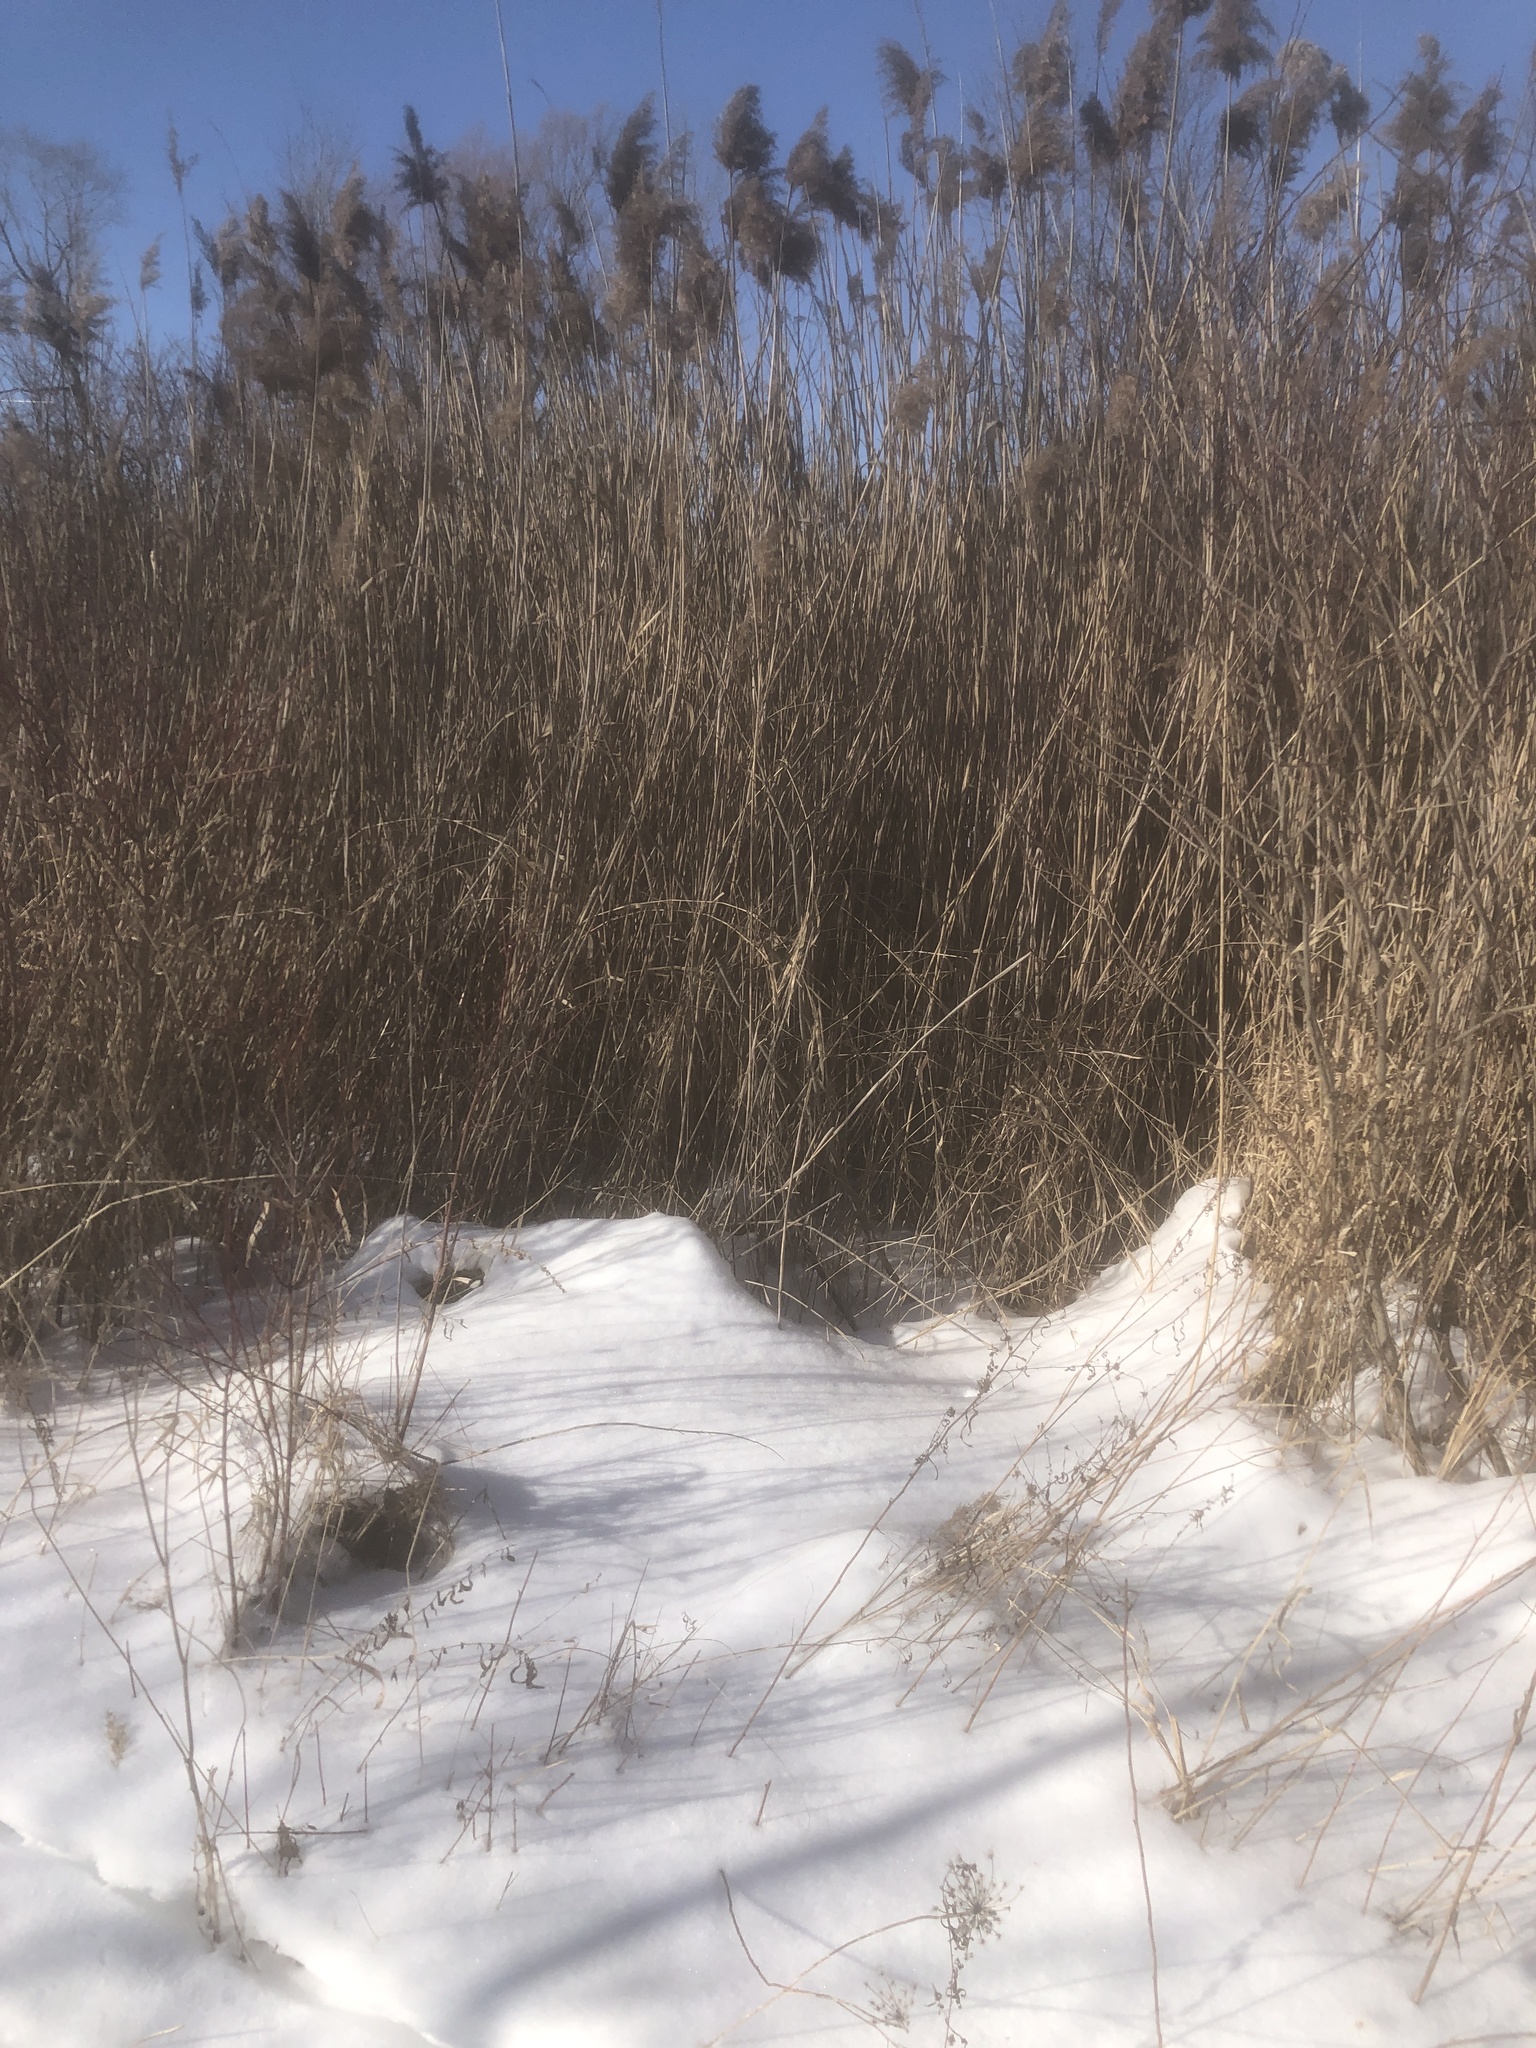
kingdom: Plantae
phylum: Tracheophyta
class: Liliopsida
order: Poales
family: Poaceae
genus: Phragmites
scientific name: Phragmites australis
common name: Common reed
